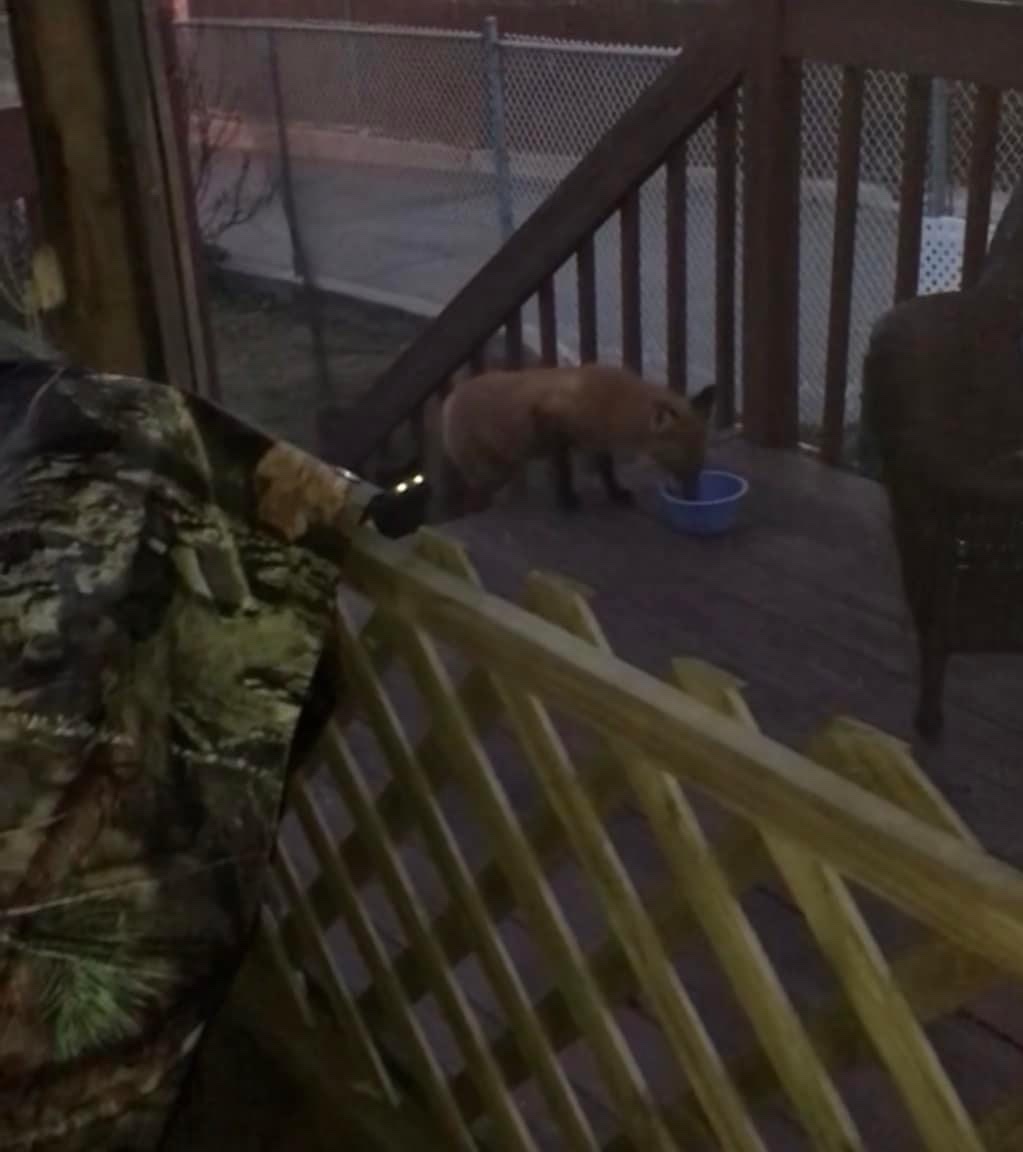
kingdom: Animalia
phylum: Chordata
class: Mammalia
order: Carnivora
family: Canidae
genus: Vulpes
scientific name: Vulpes vulpes
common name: Red fox
